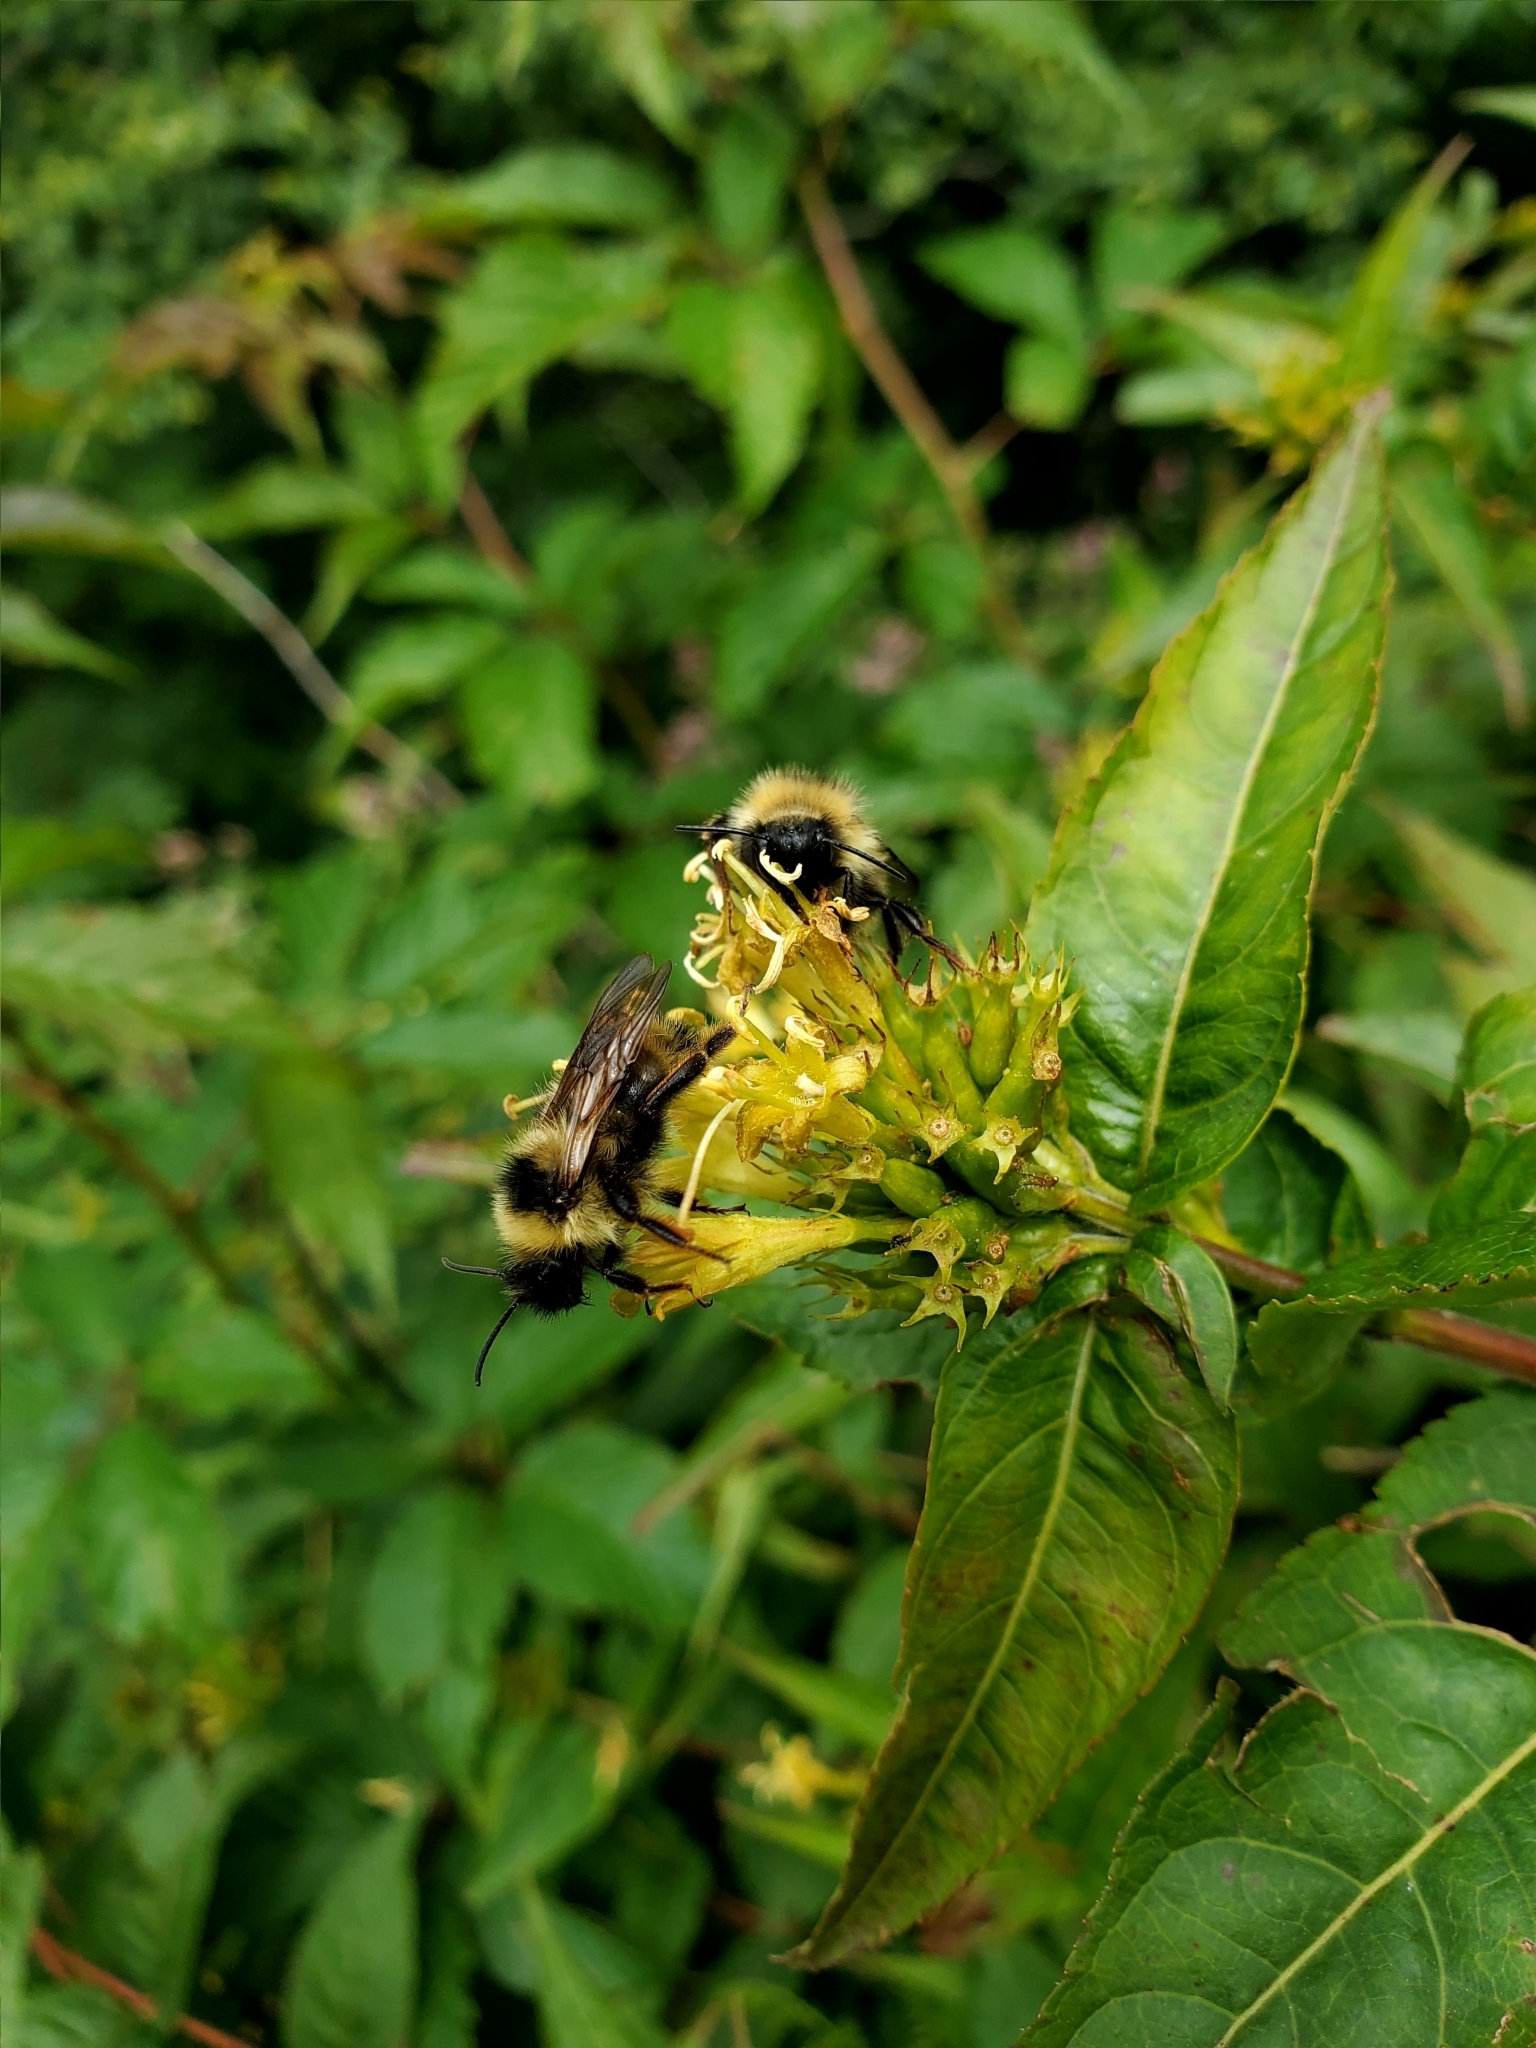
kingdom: Animalia
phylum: Arthropoda
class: Insecta
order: Hymenoptera
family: Apidae
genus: Bombus
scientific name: Bombus flavidus
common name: Fernald cuckoo bumble bee
